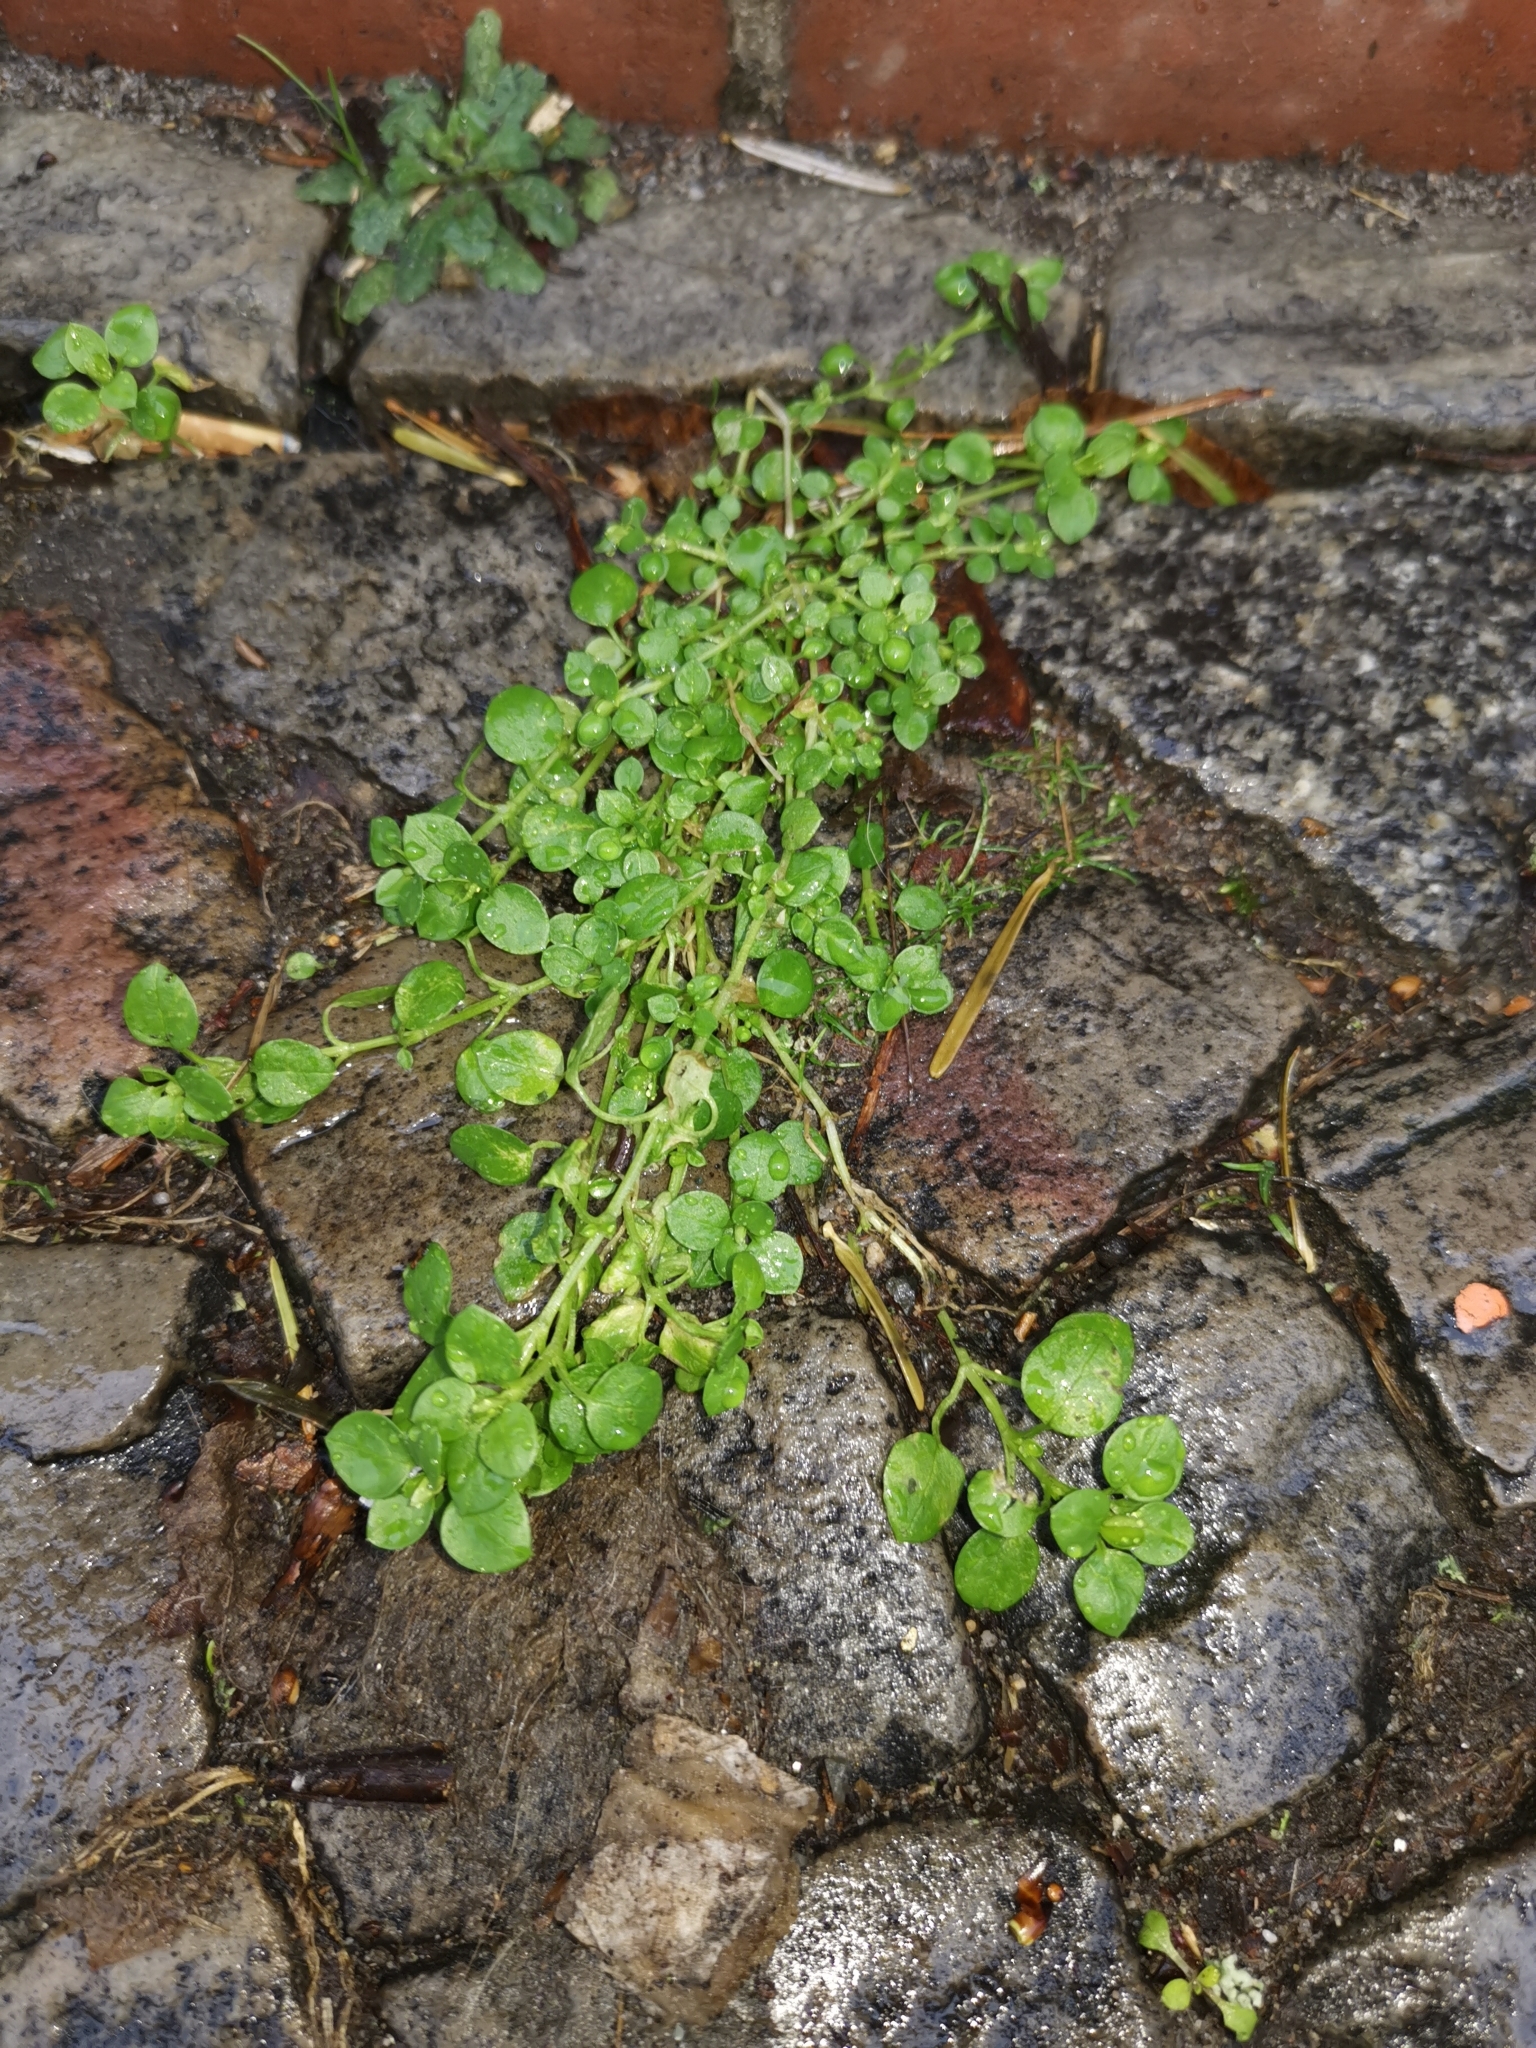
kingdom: Plantae
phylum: Tracheophyta
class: Magnoliopsida
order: Caryophyllales
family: Caryophyllaceae
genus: Stellaria
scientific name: Stellaria media
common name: Common chickweed
